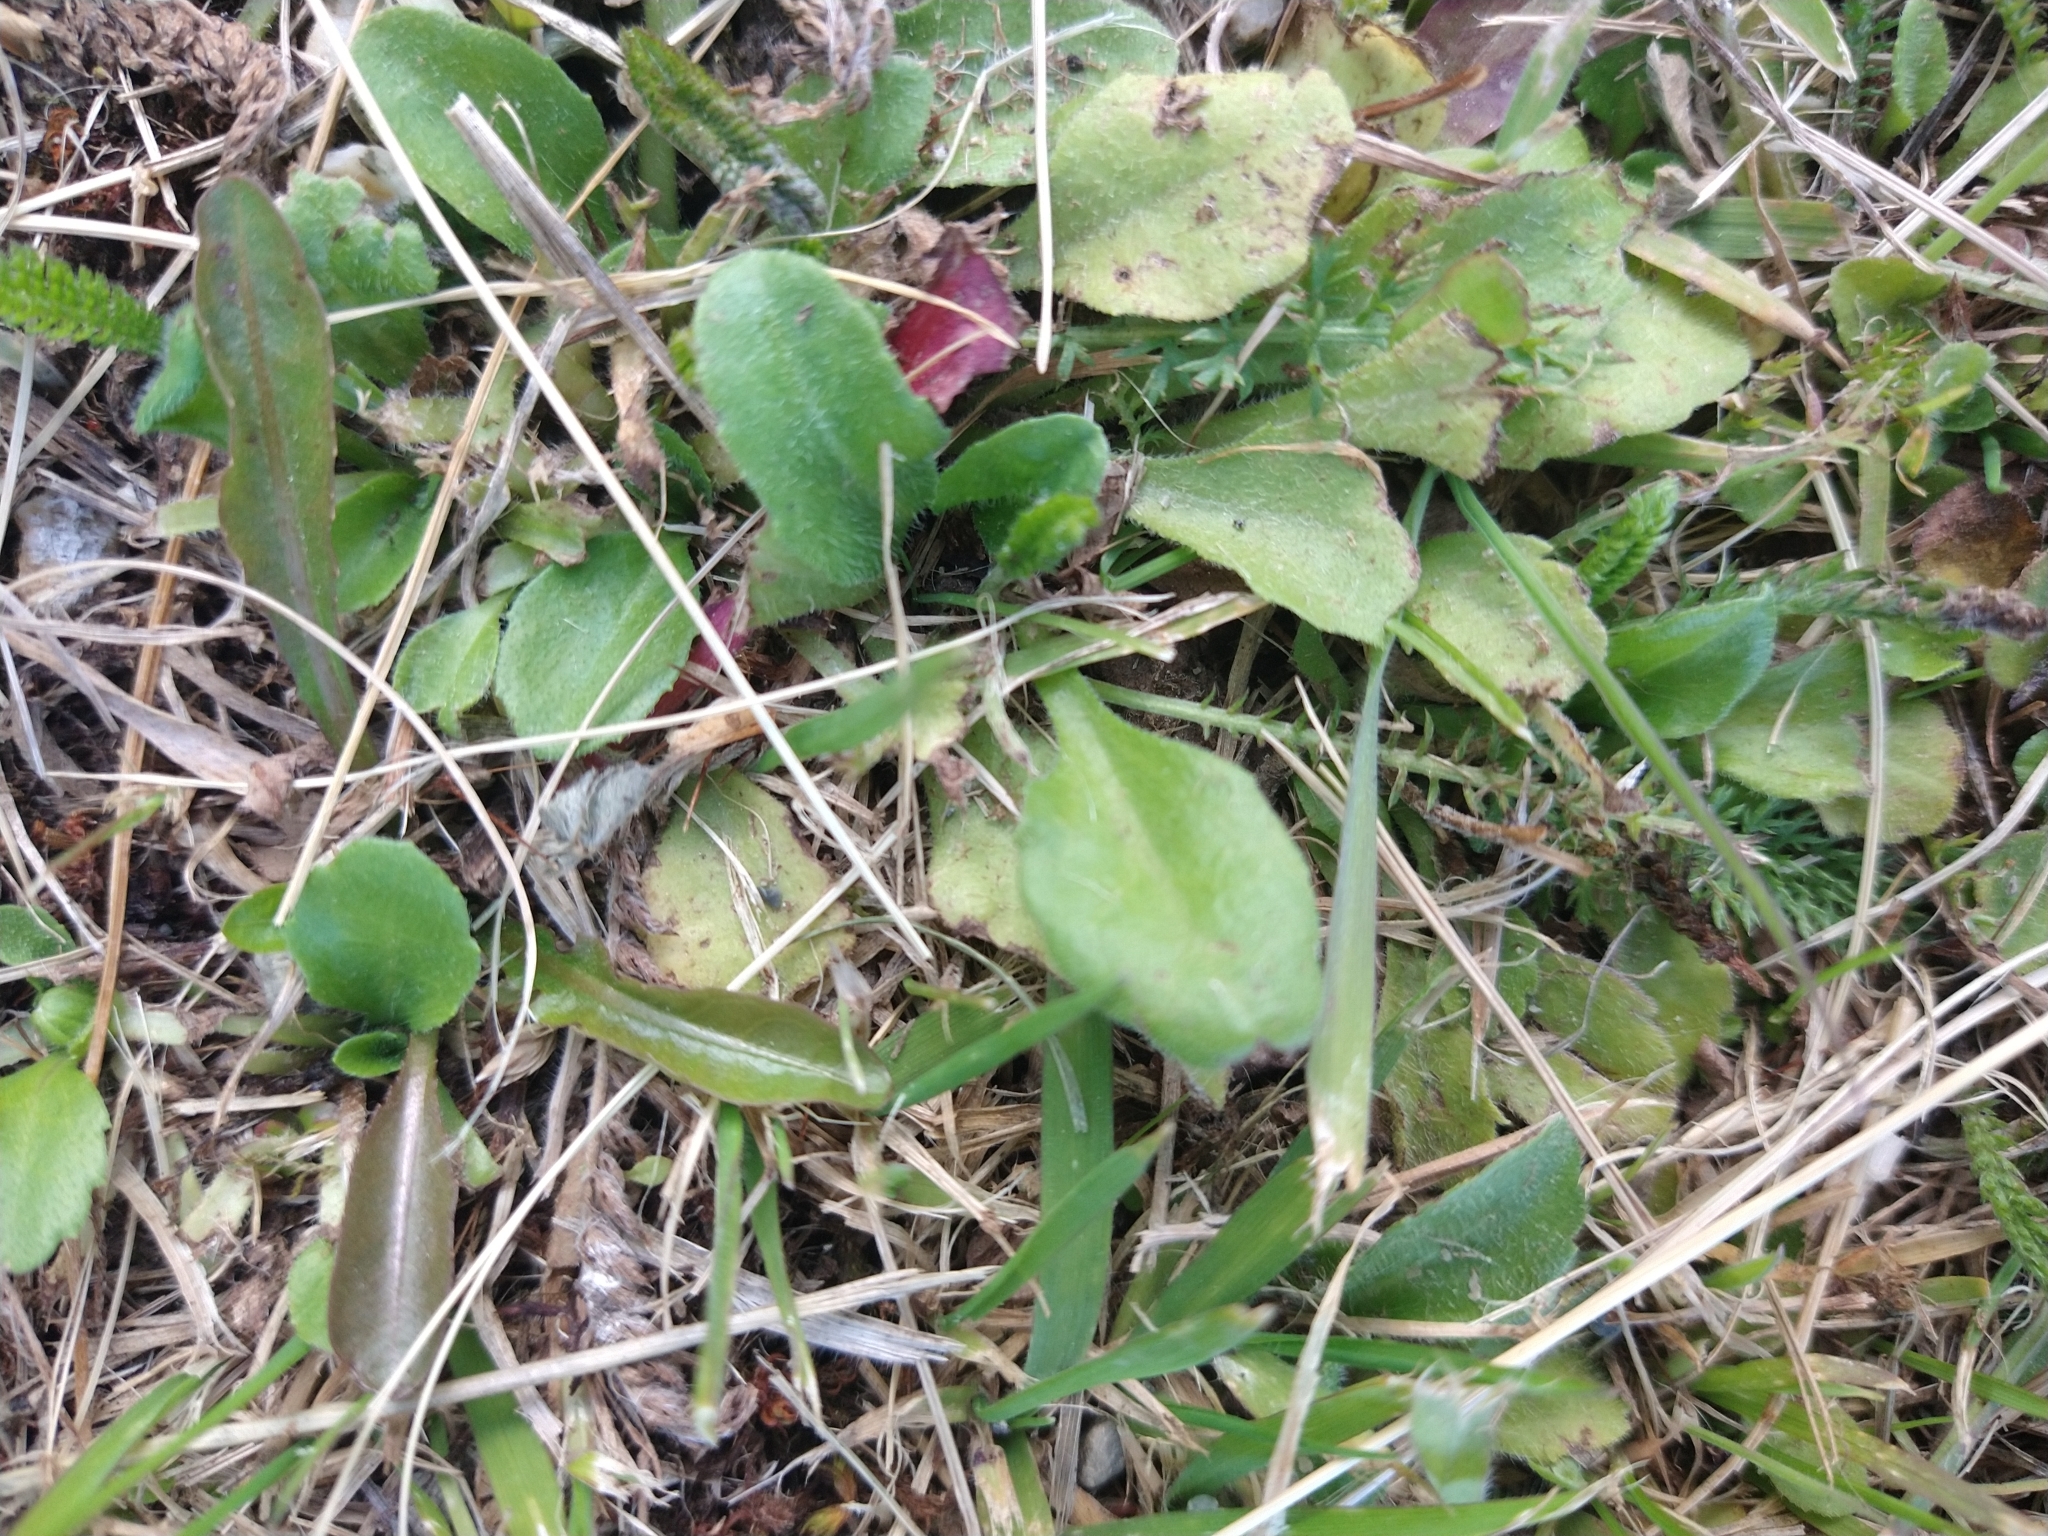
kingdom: Plantae
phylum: Tracheophyta
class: Magnoliopsida
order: Asterales
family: Asteraceae
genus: Bellis
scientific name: Bellis perennis
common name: Lawndaisy
